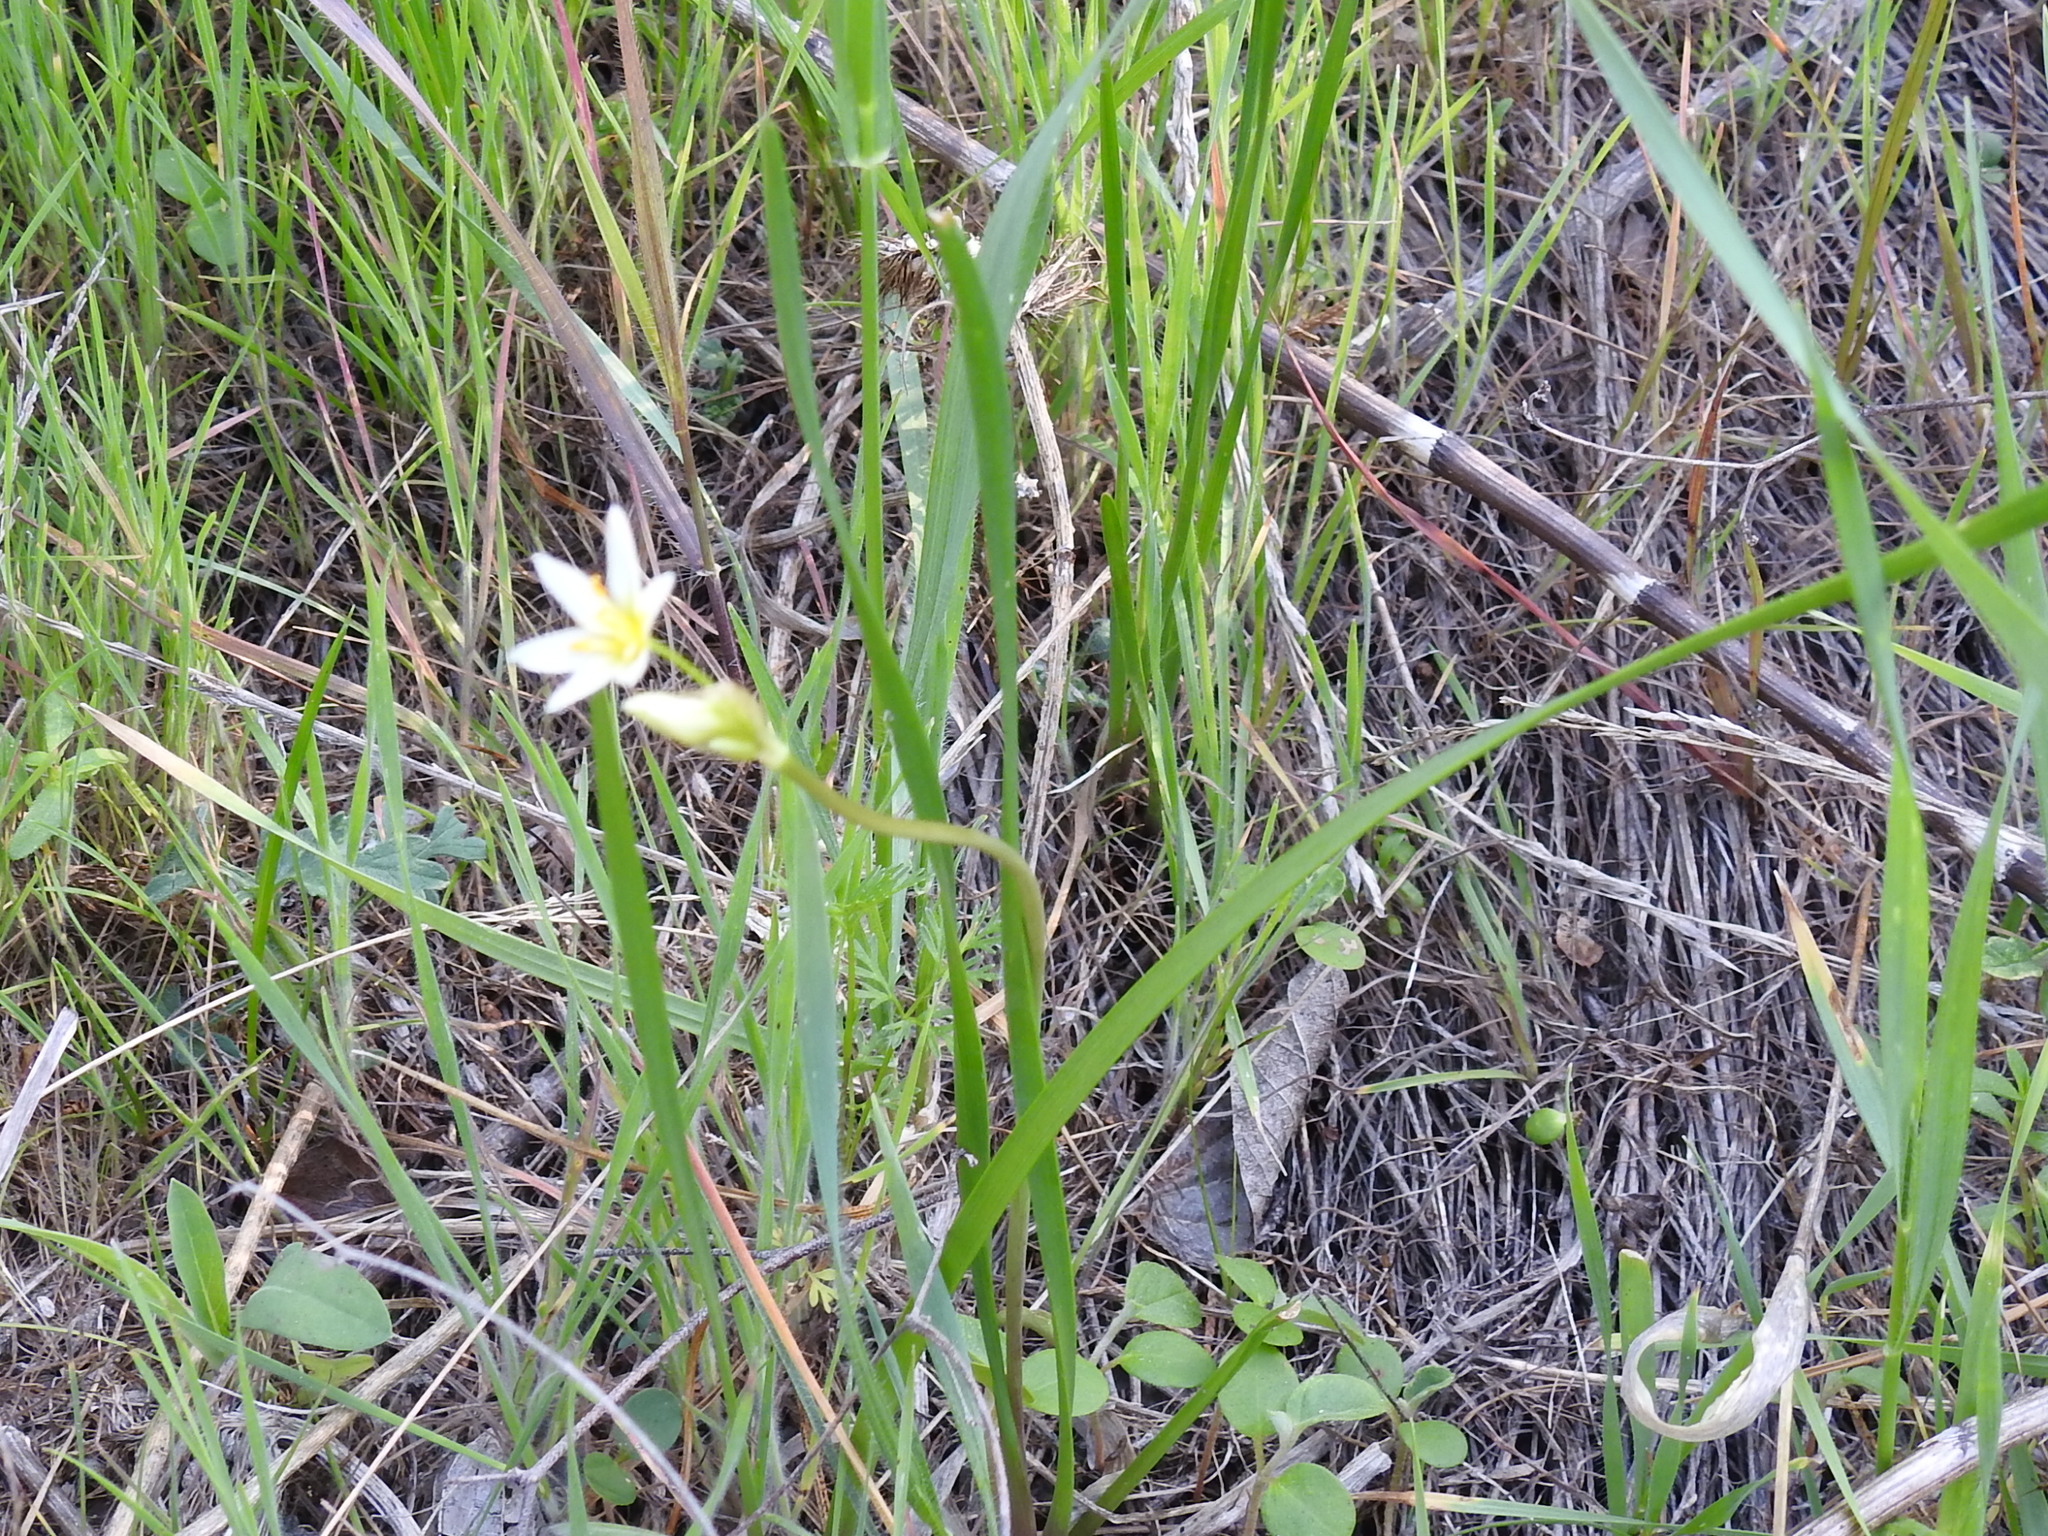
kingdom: Plantae
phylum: Tracheophyta
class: Liliopsida
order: Asparagales
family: Amaryllidaceae
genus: Nothoscordum
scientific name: Nothoscordum bivalve
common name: Crow-poison
